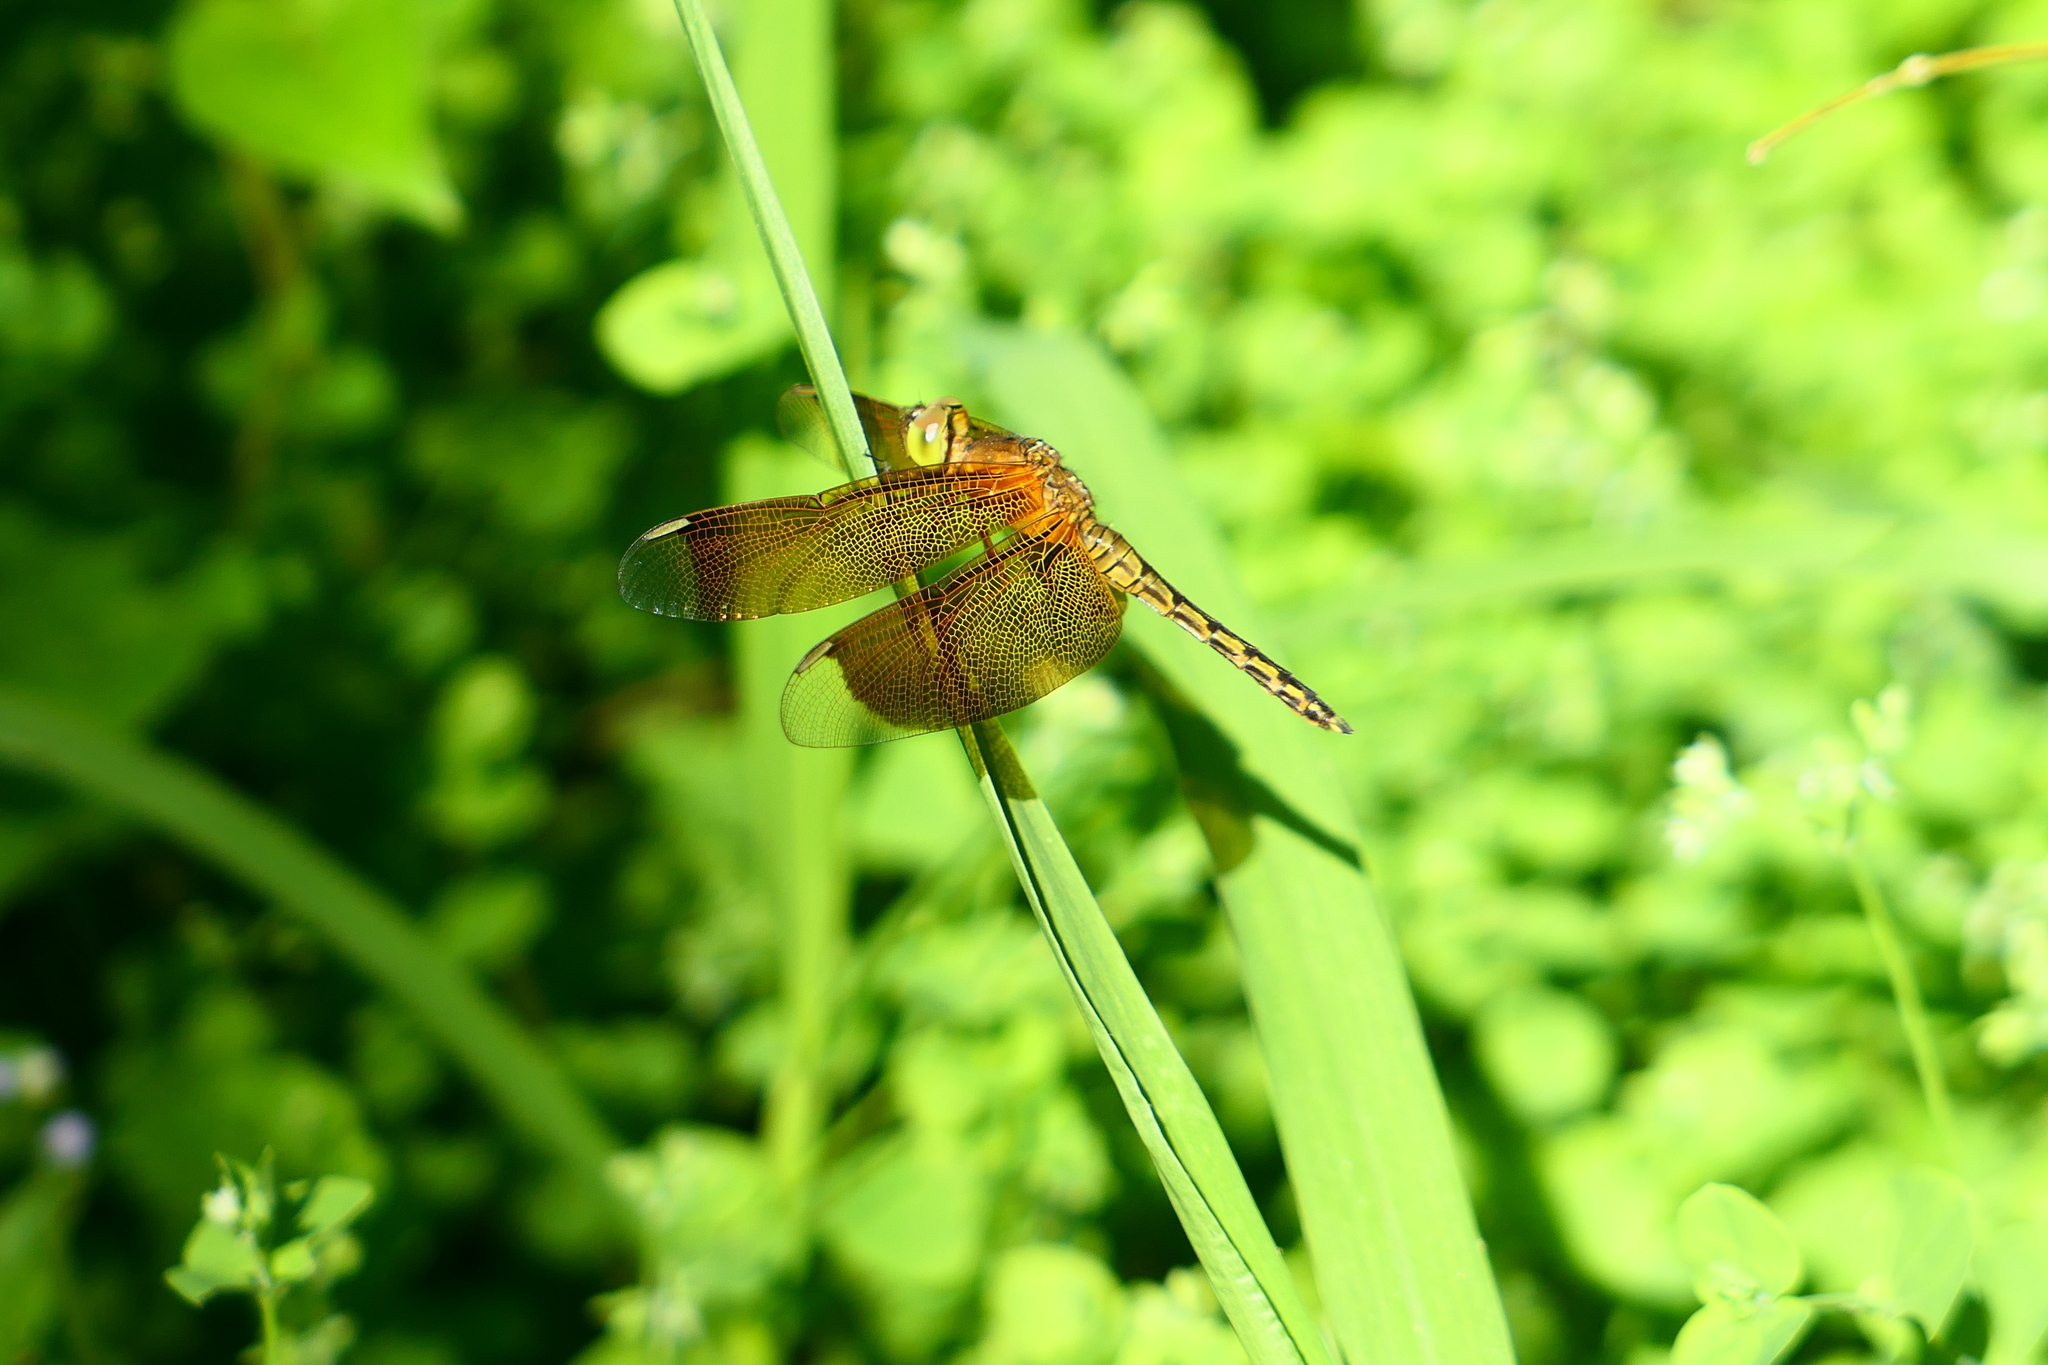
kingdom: Animalia
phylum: Arthropoda
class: Insecta
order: Odonata
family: Libellulidae
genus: Orthetrum
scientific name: Orthetrum pruinosum
